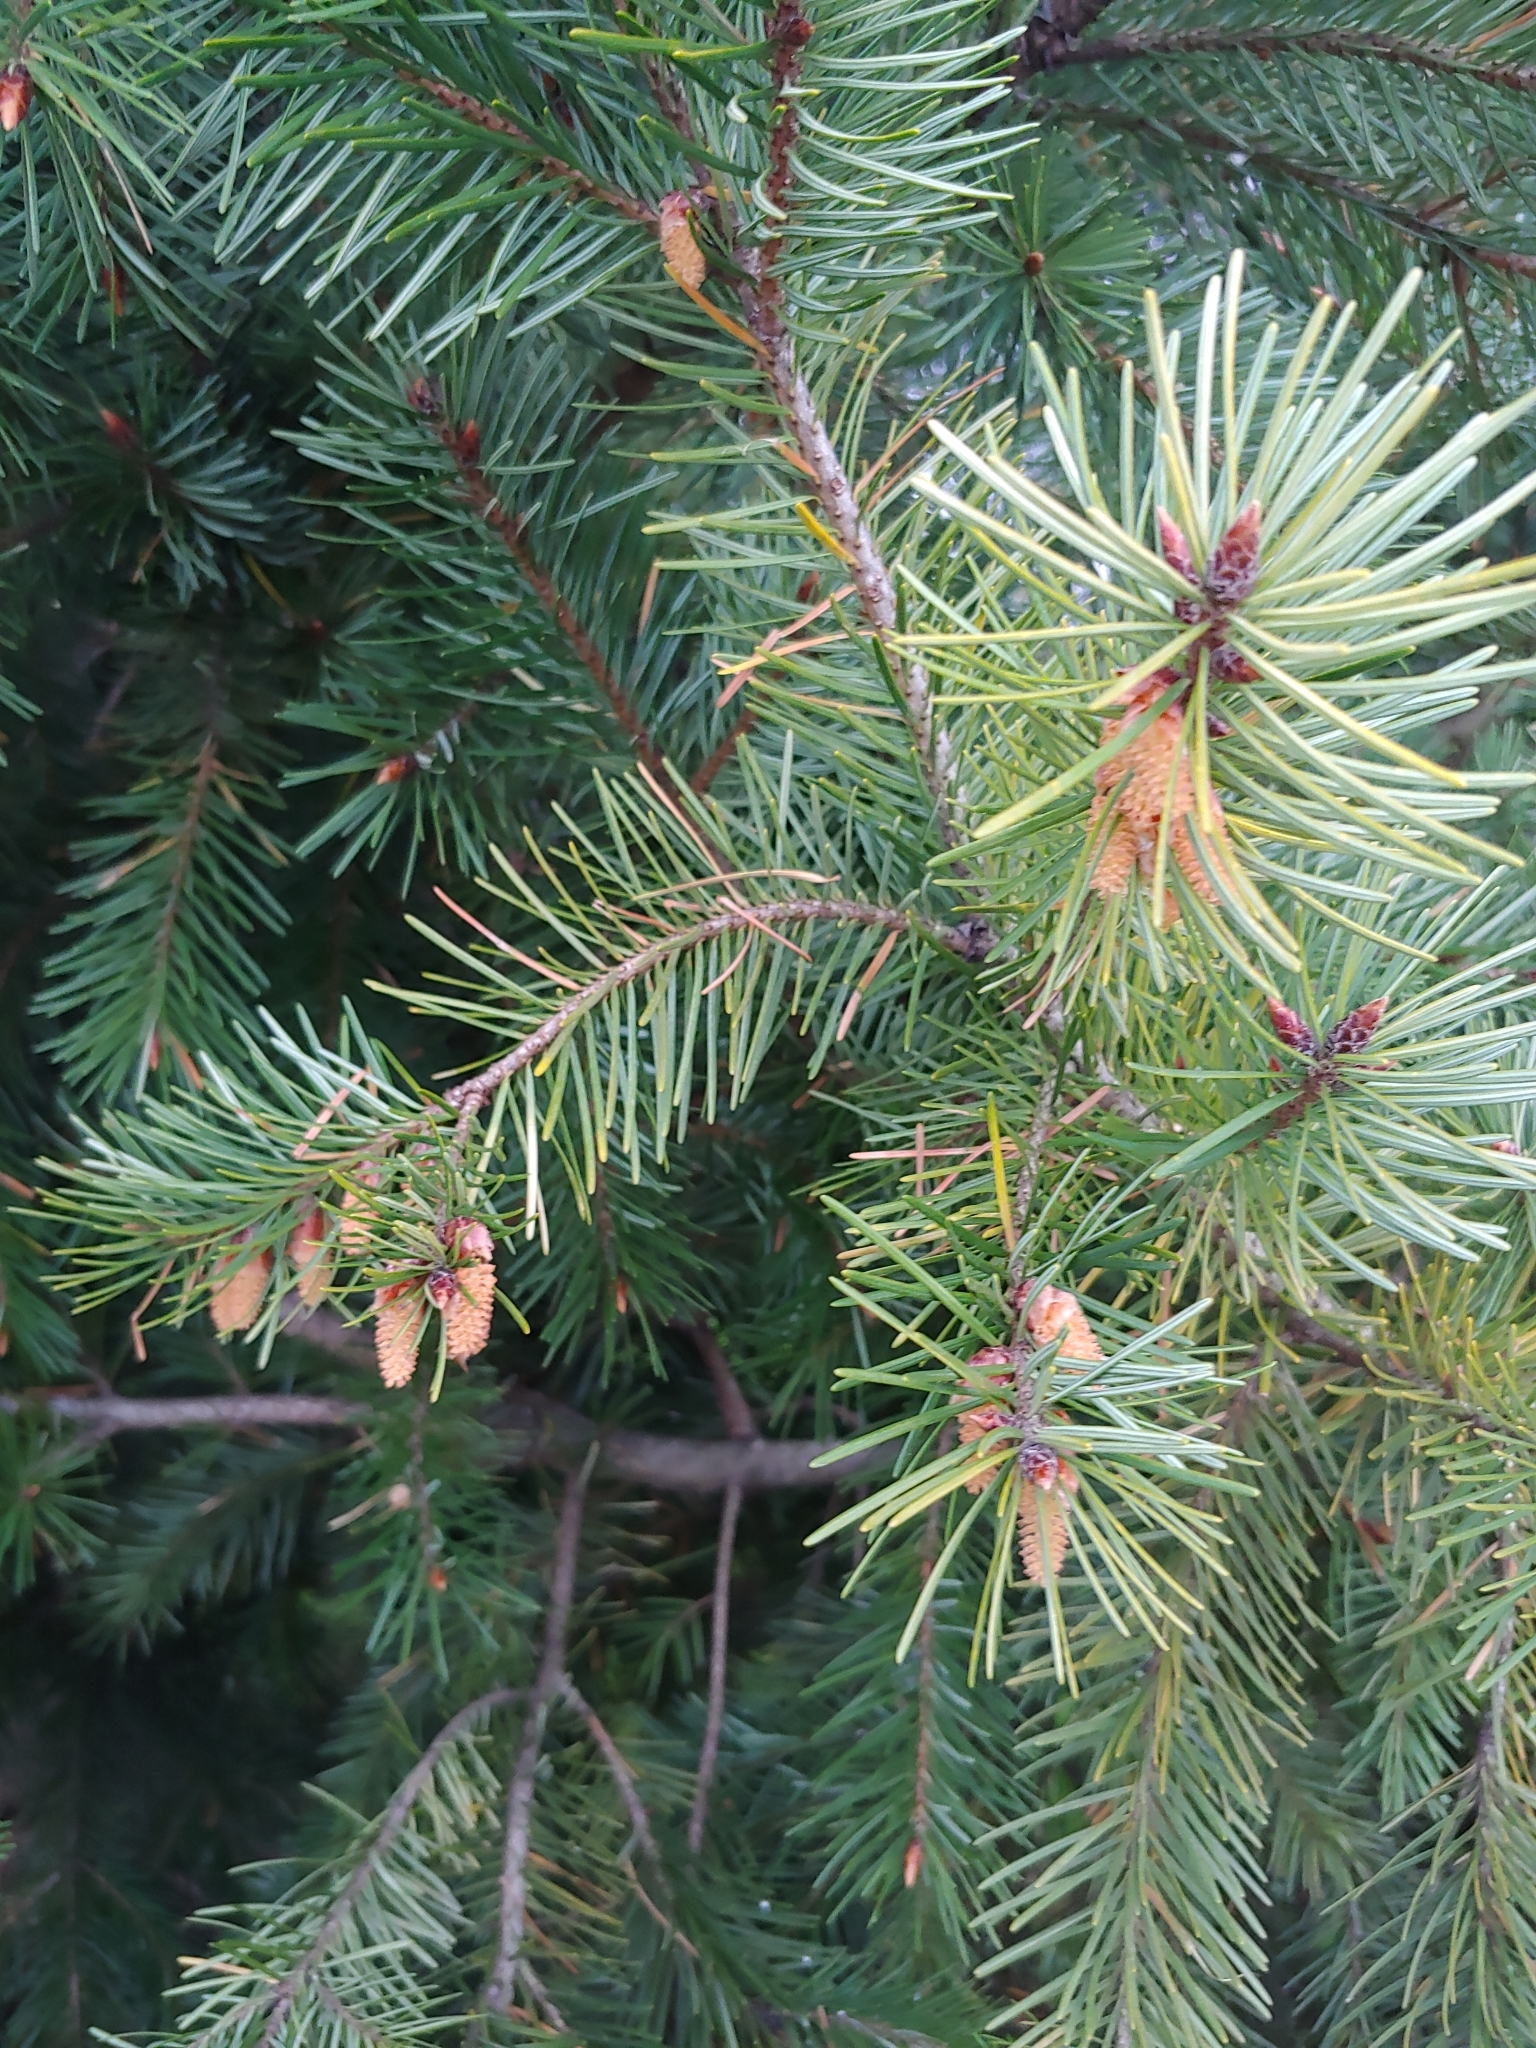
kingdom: Plantae
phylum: Tracheophyta
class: Pinopsida
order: Pinales
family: Pinaceae
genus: Pseudotsuga
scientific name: Pseudotsuga menziesii
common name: Douglas fir
